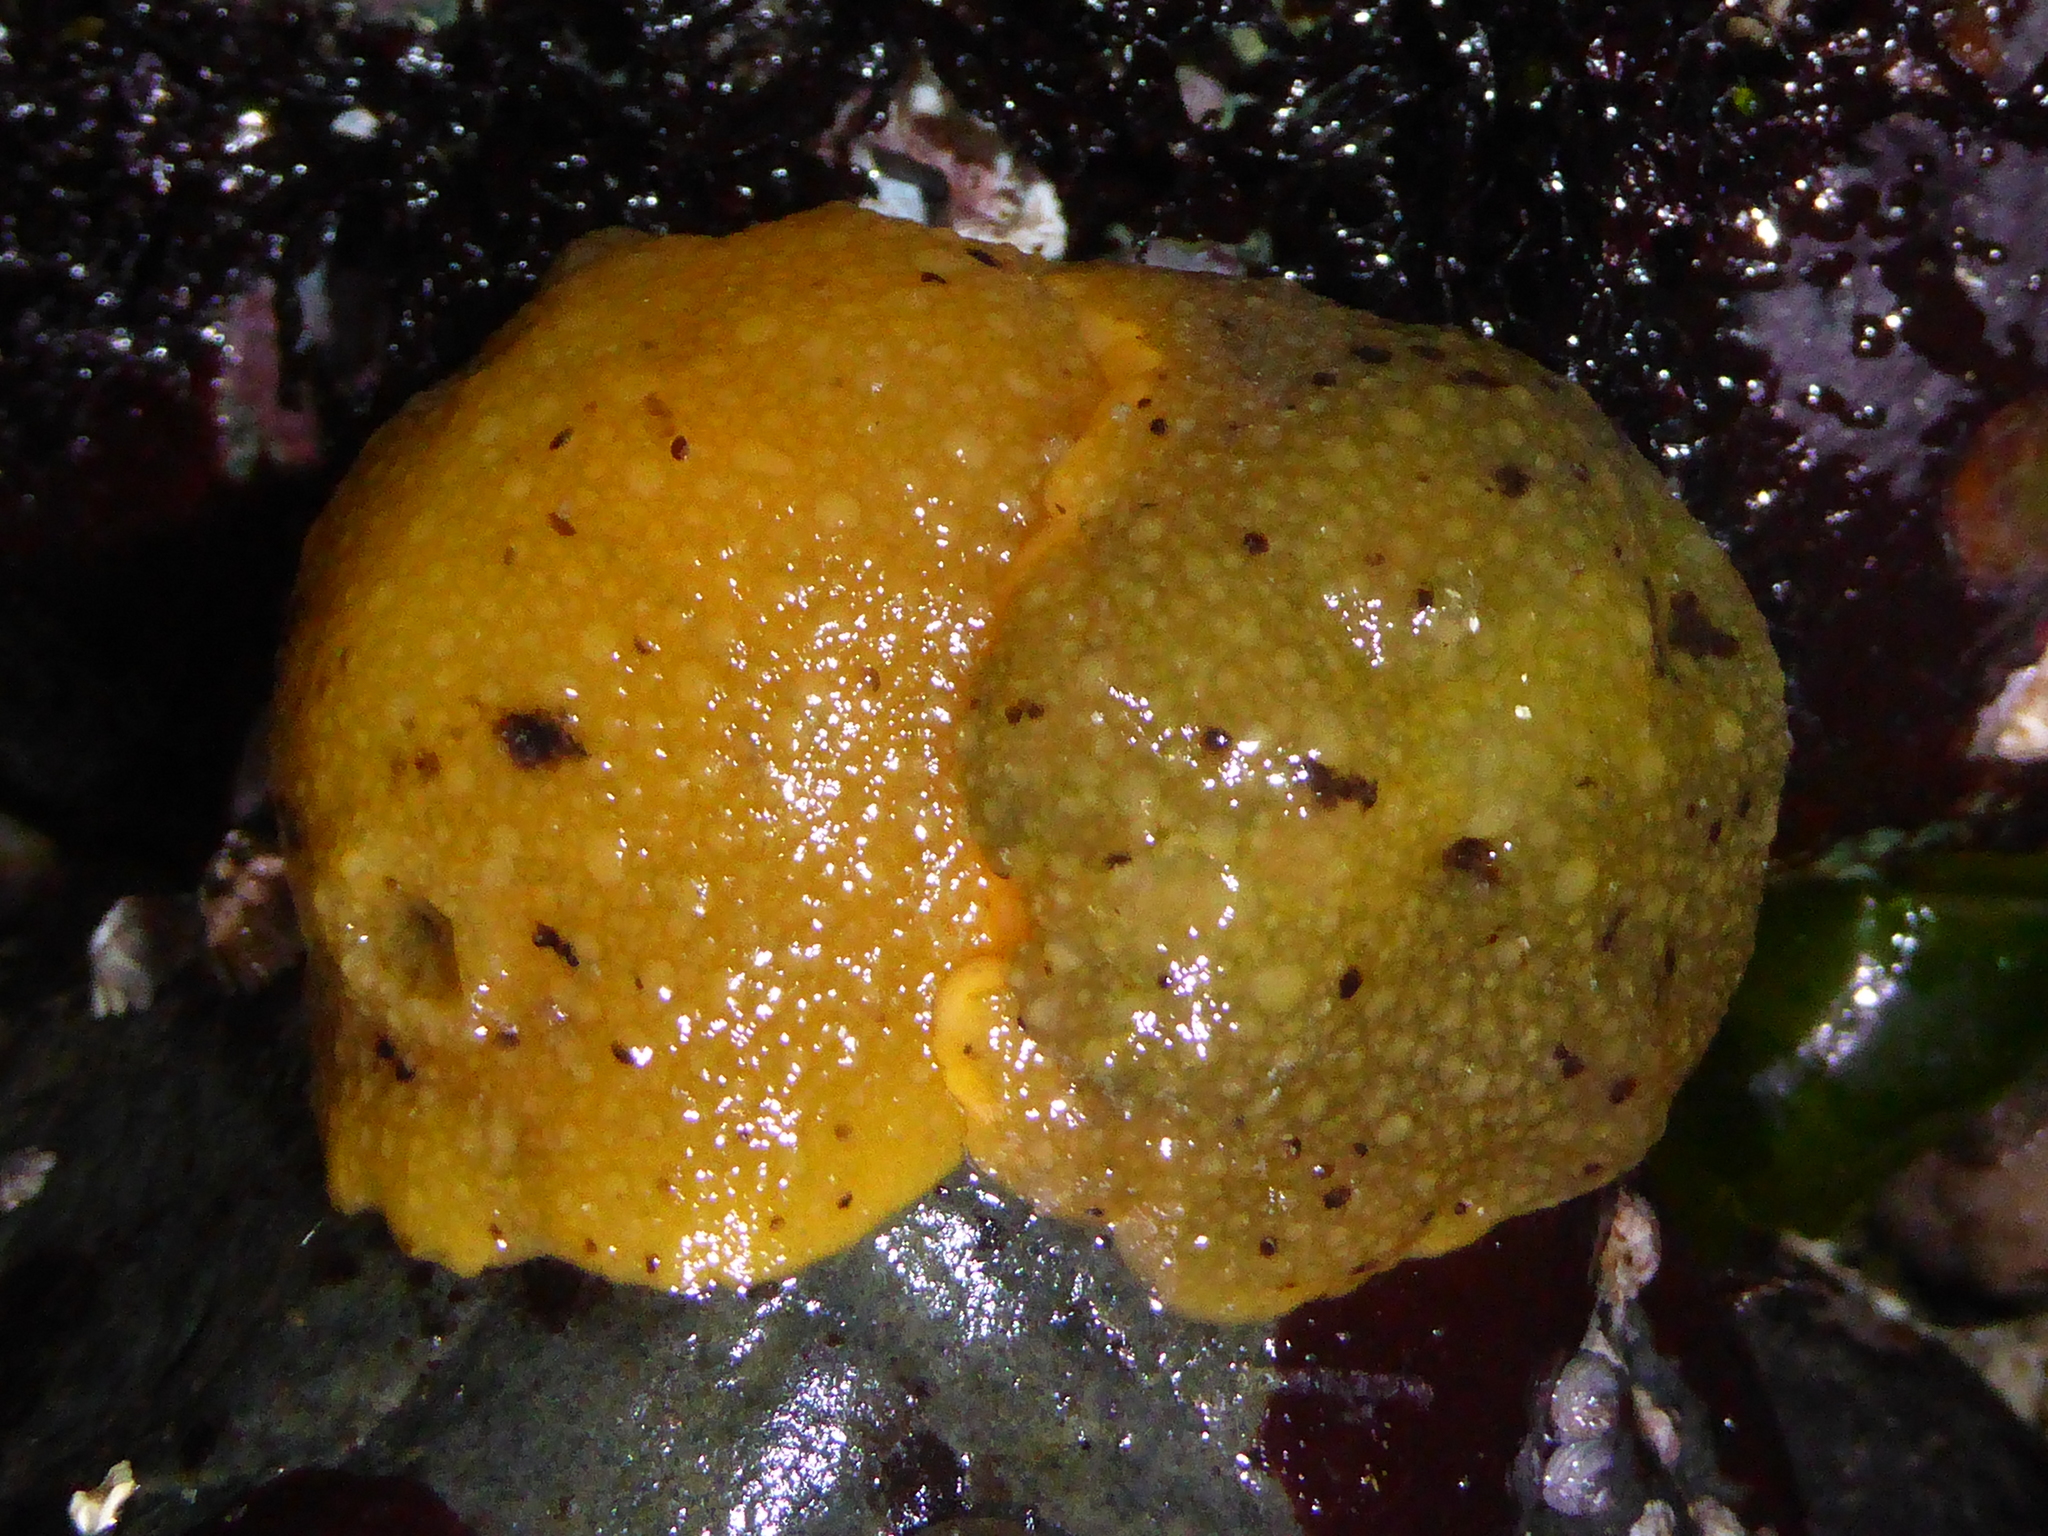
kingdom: Animalia
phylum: Mollusca
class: Gastropoda
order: Nudibranchia
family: Dorididae
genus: Doris
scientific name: Doris montereyensis
